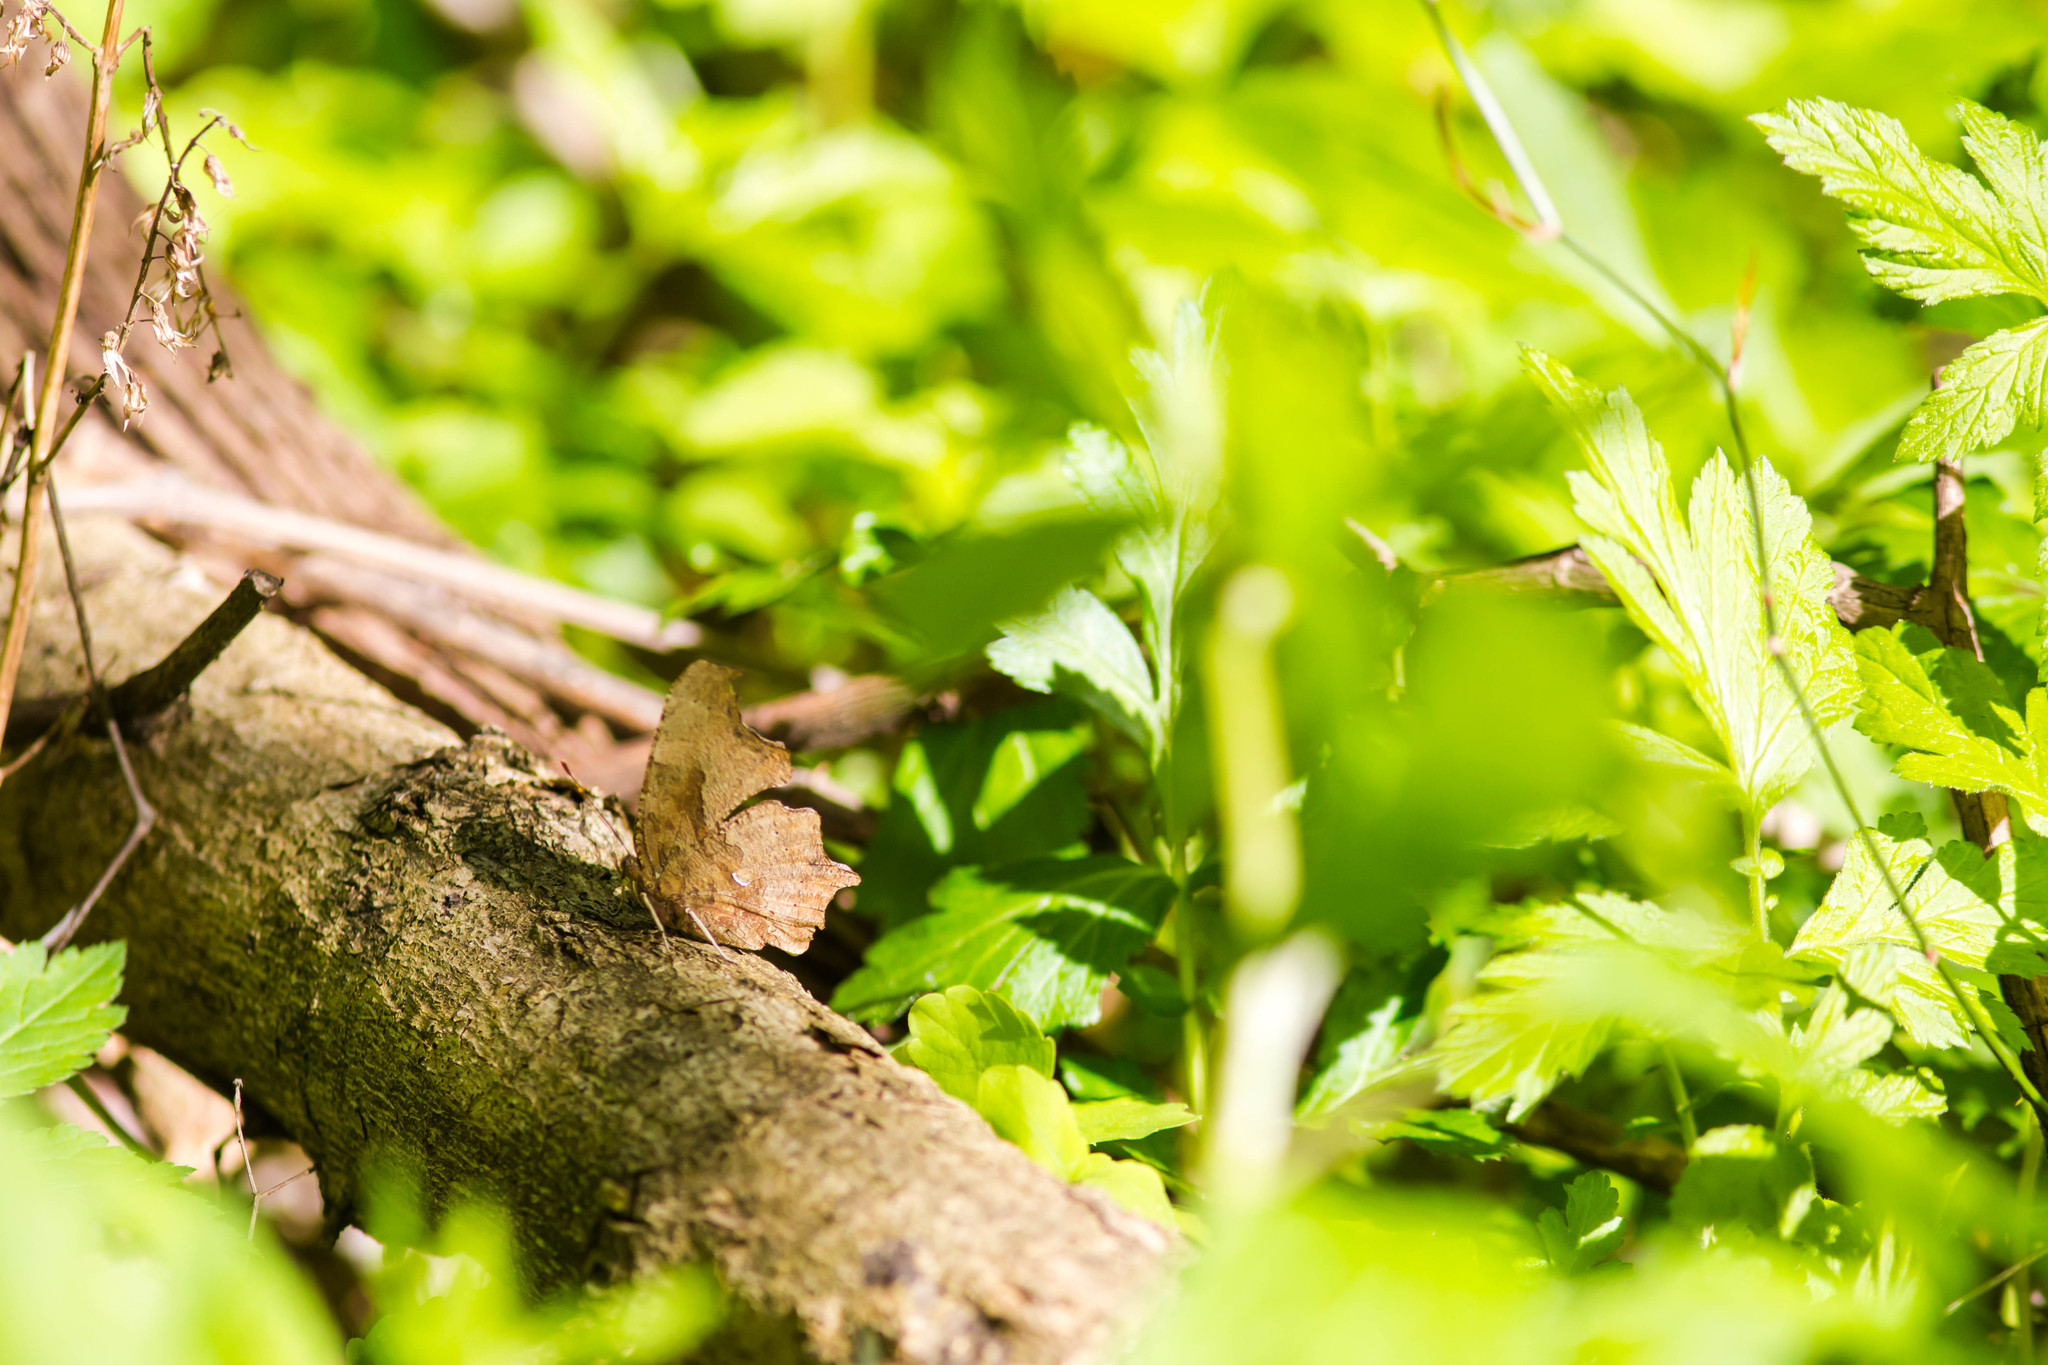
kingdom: Animalia
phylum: Arthropoda
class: Insecta
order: Lepidoptera
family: Nymphalidae
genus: Polygonia
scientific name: Polygonia comma
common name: Eastern comma
